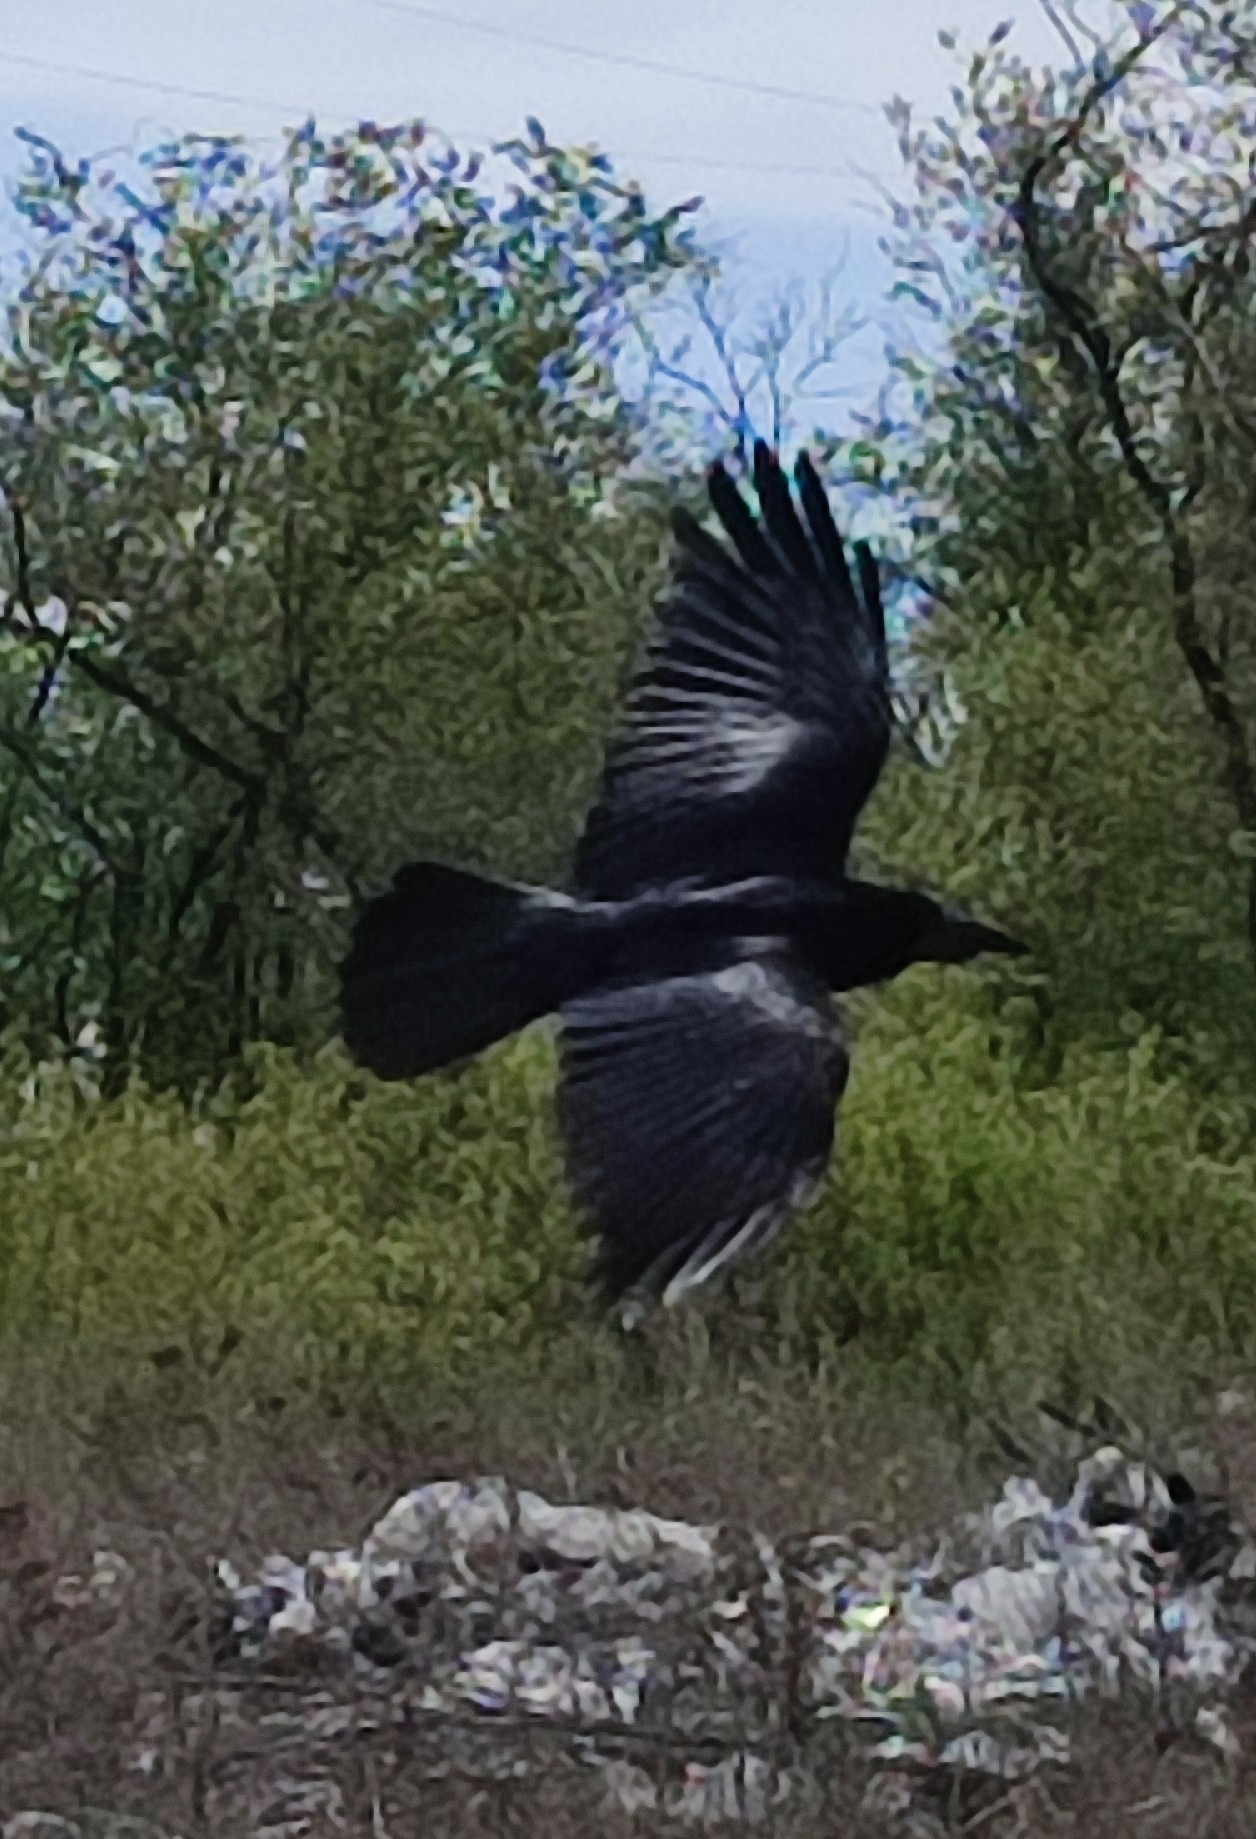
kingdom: Animalia
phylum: Chordata
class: Aves
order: Passeriformes
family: Corvidae
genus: Corvus
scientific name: Corvus corax
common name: Common raven
